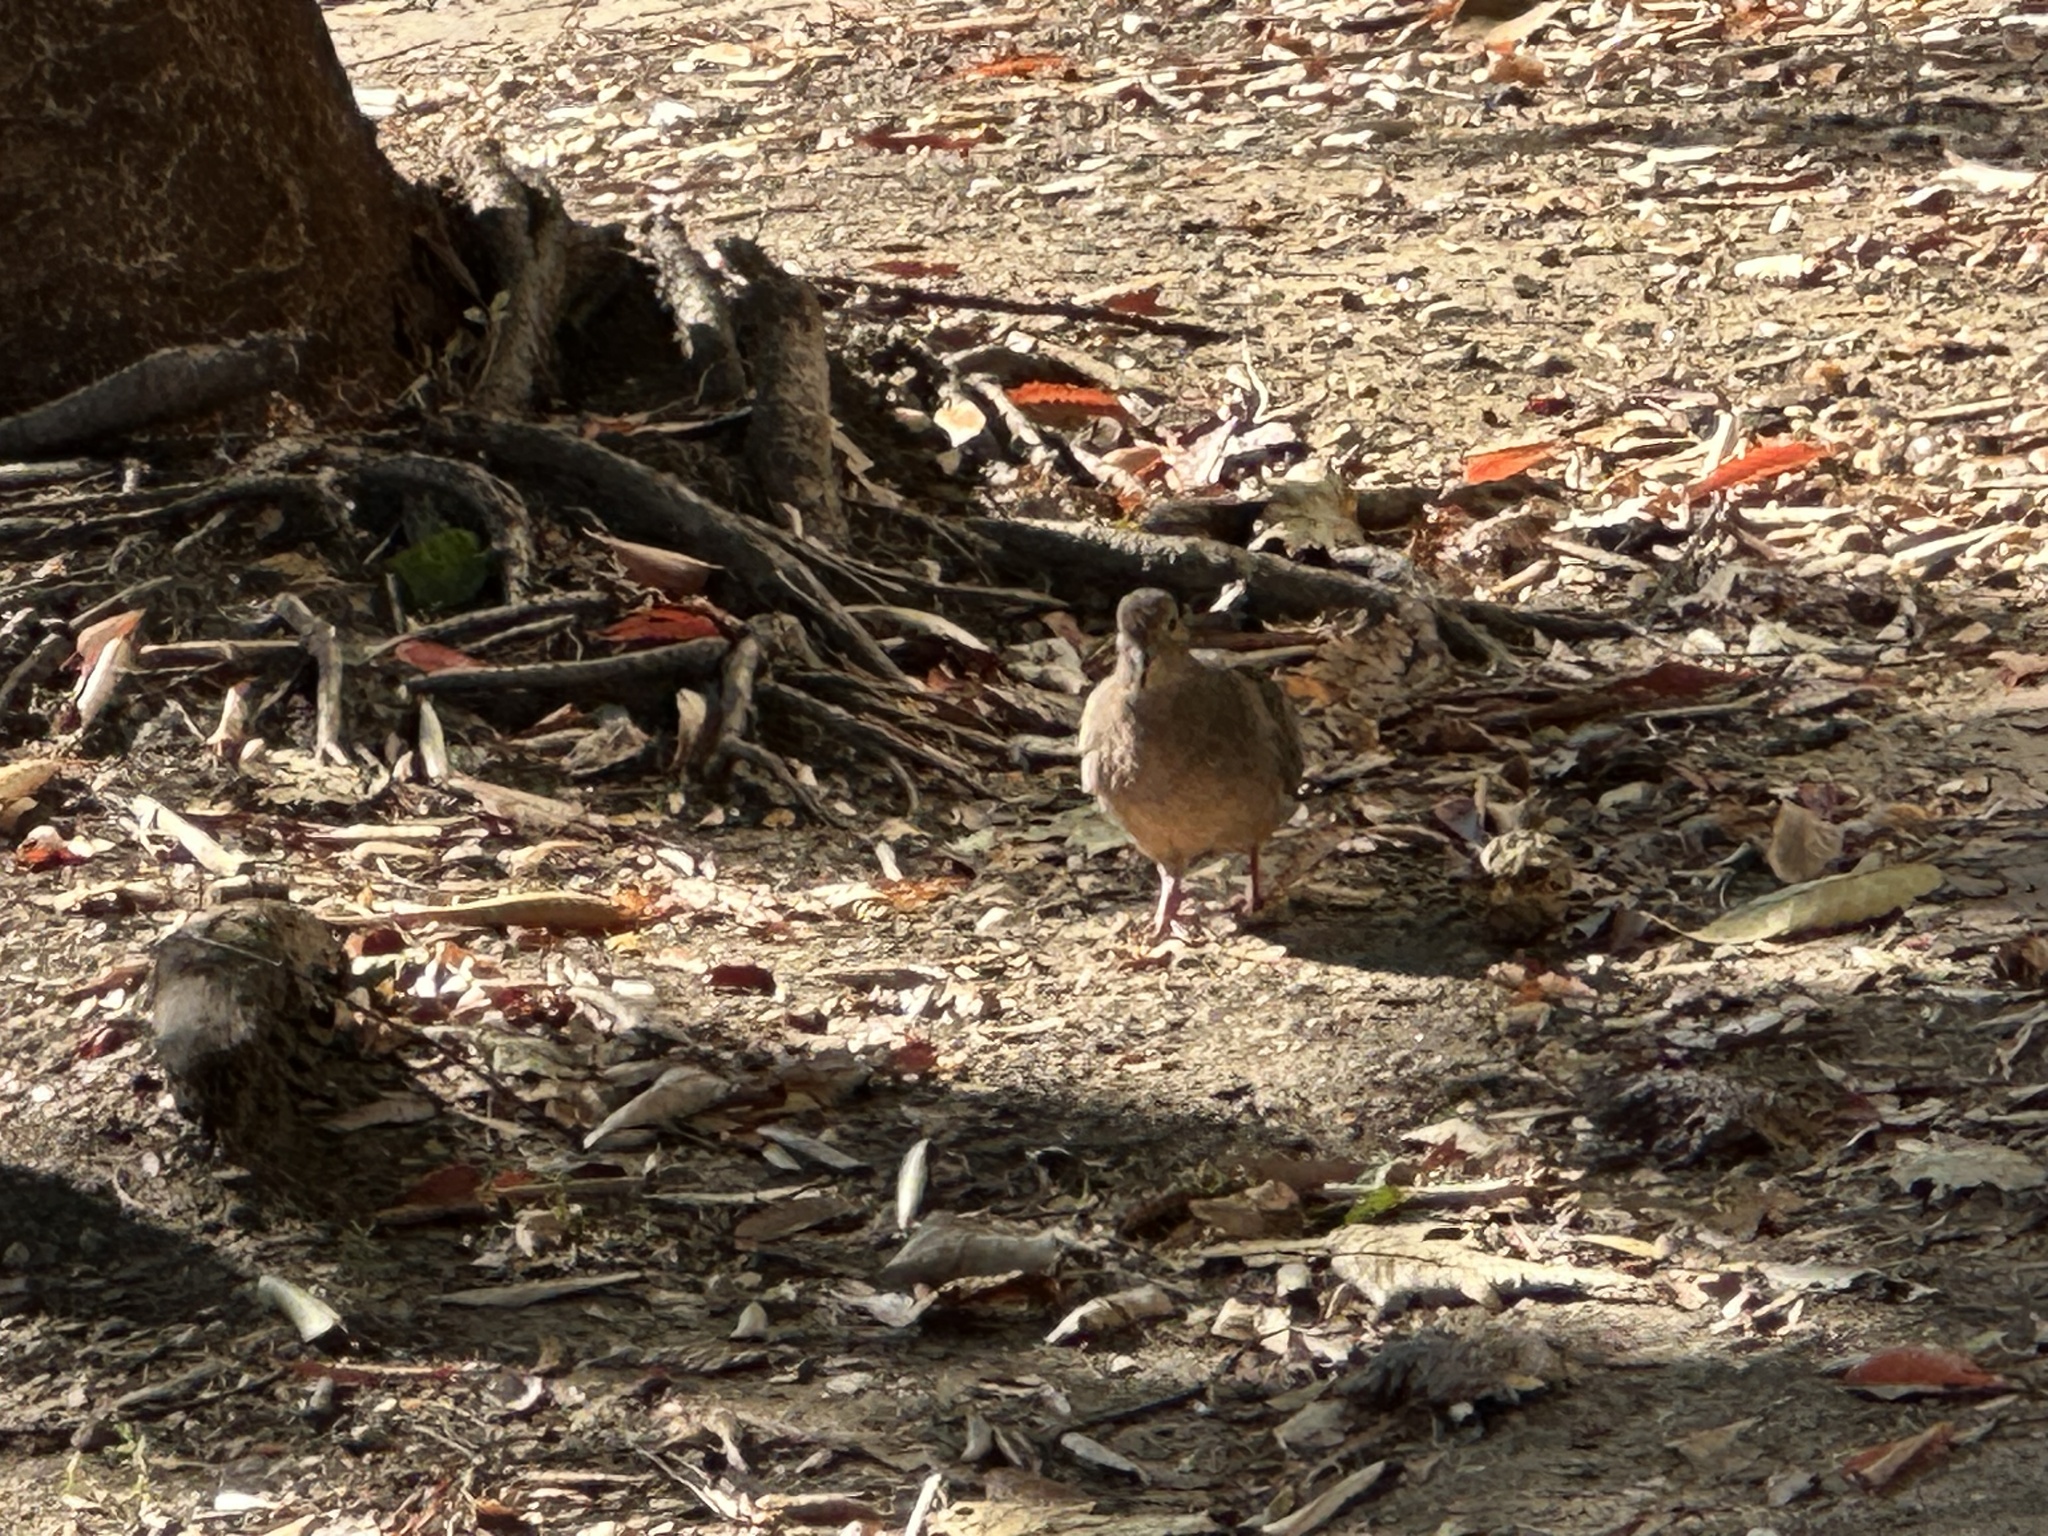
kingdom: Animalia
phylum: Chordata
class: Aves
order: Columbiformes
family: Columbidae
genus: Zenaida
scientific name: Zenaida macroura
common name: Mourning dove
